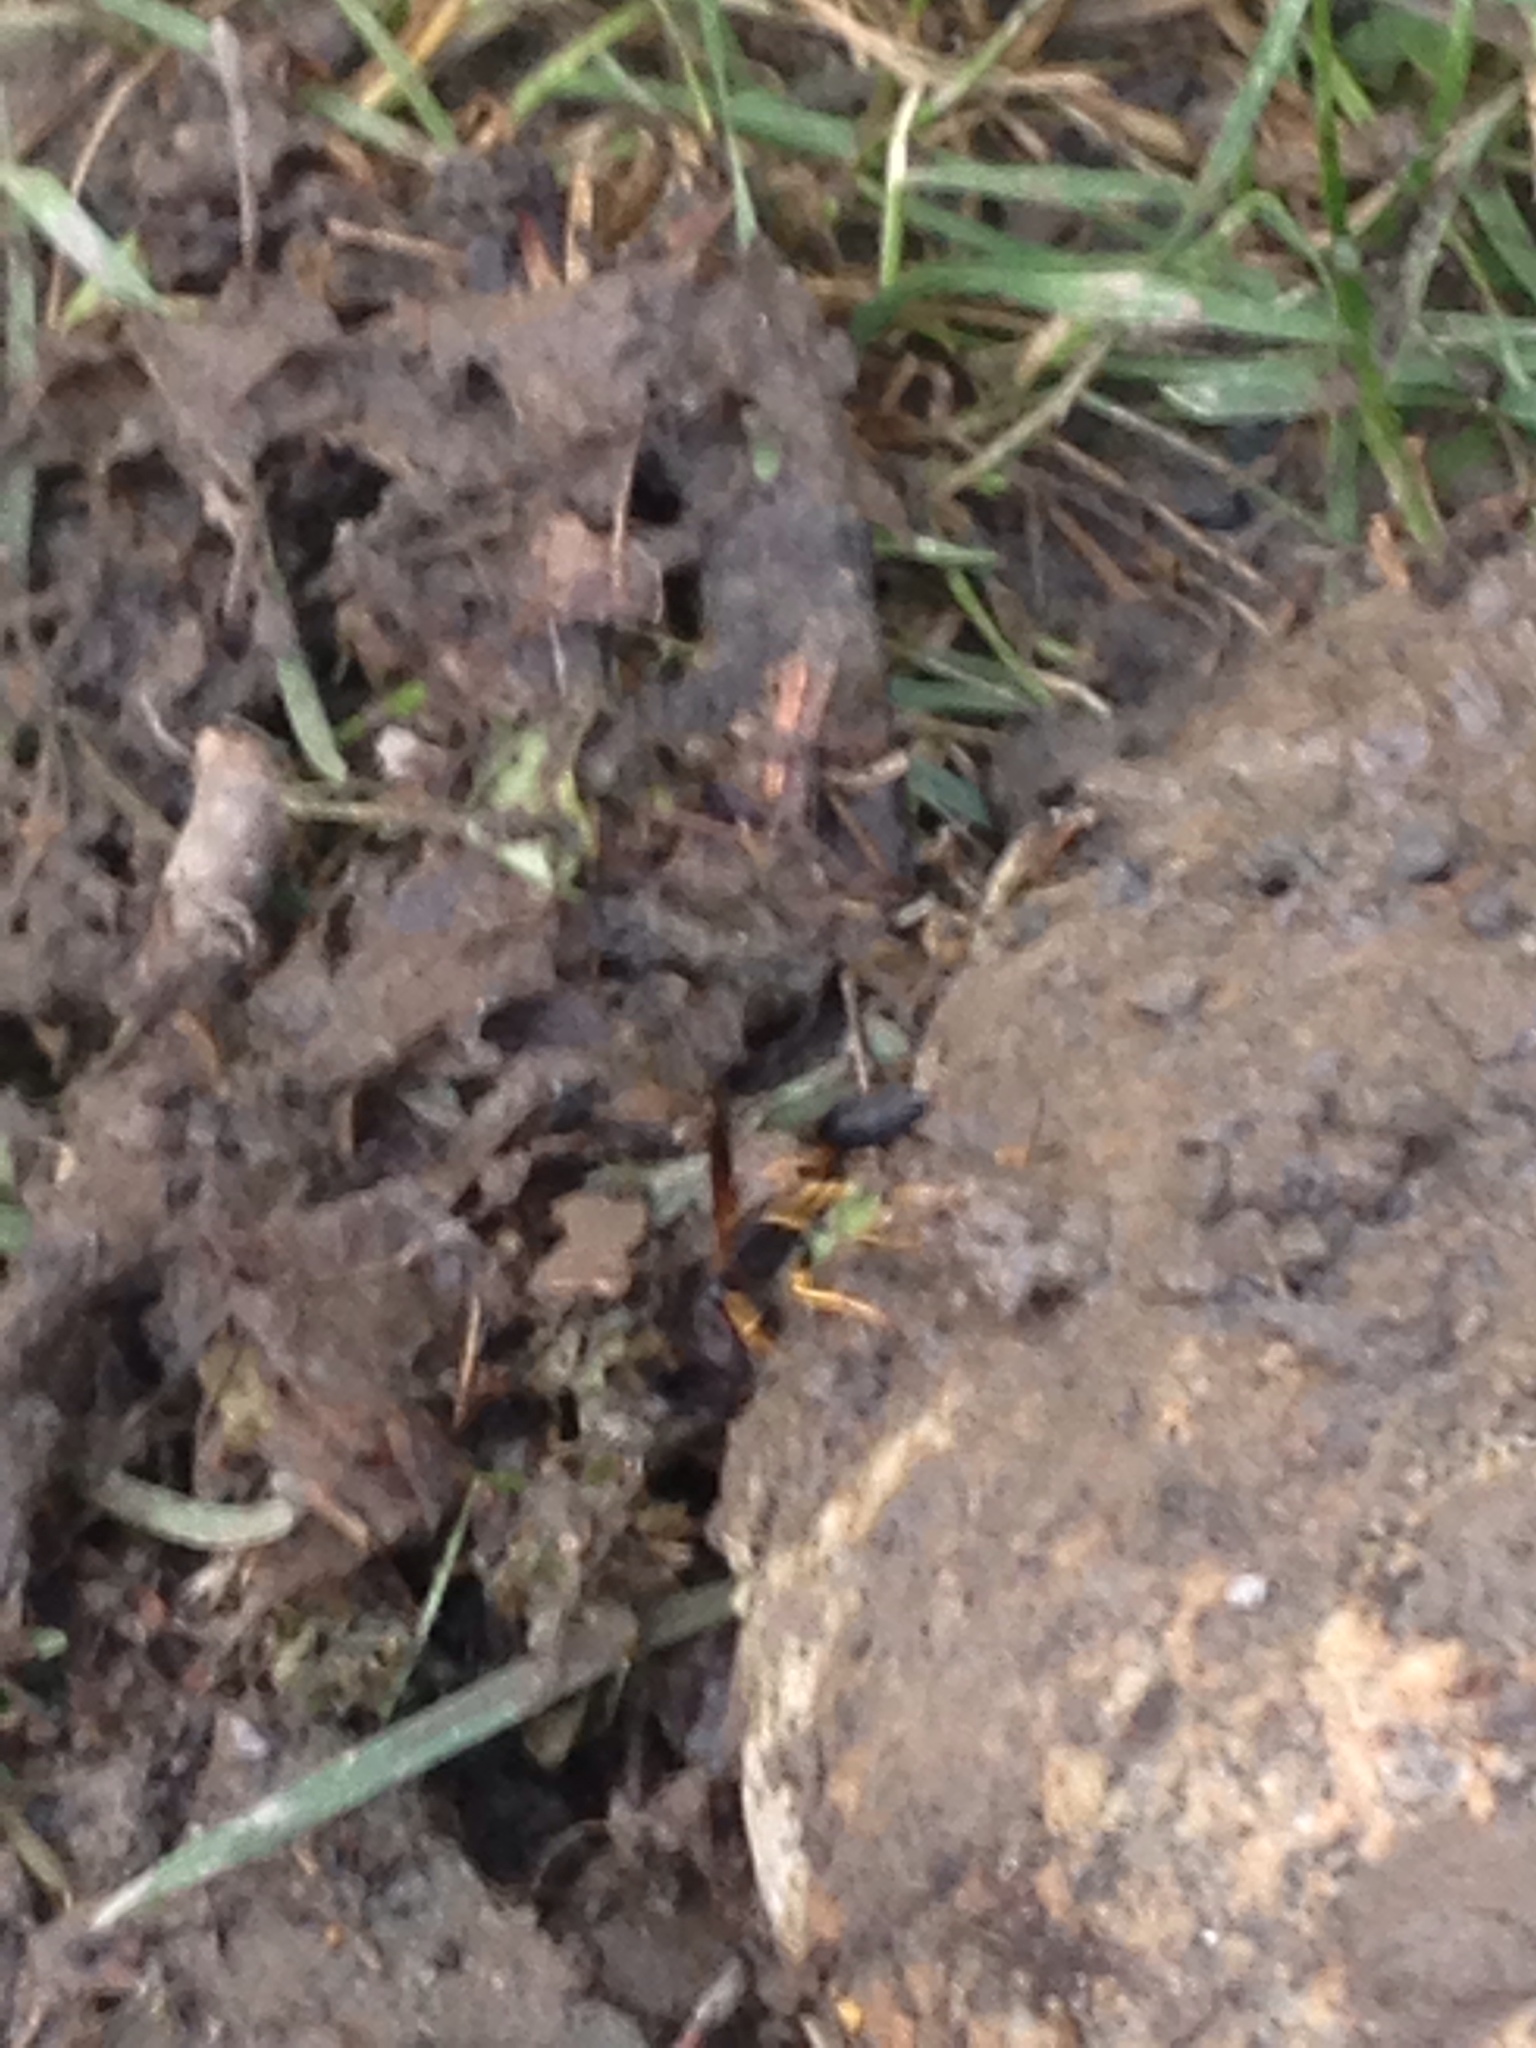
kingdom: Animalia
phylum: Arthropoda
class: Insecta
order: Hymenoptera
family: Sphecidae
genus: Sceliphron
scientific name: Sceliphron caementarium
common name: Mud dauber
